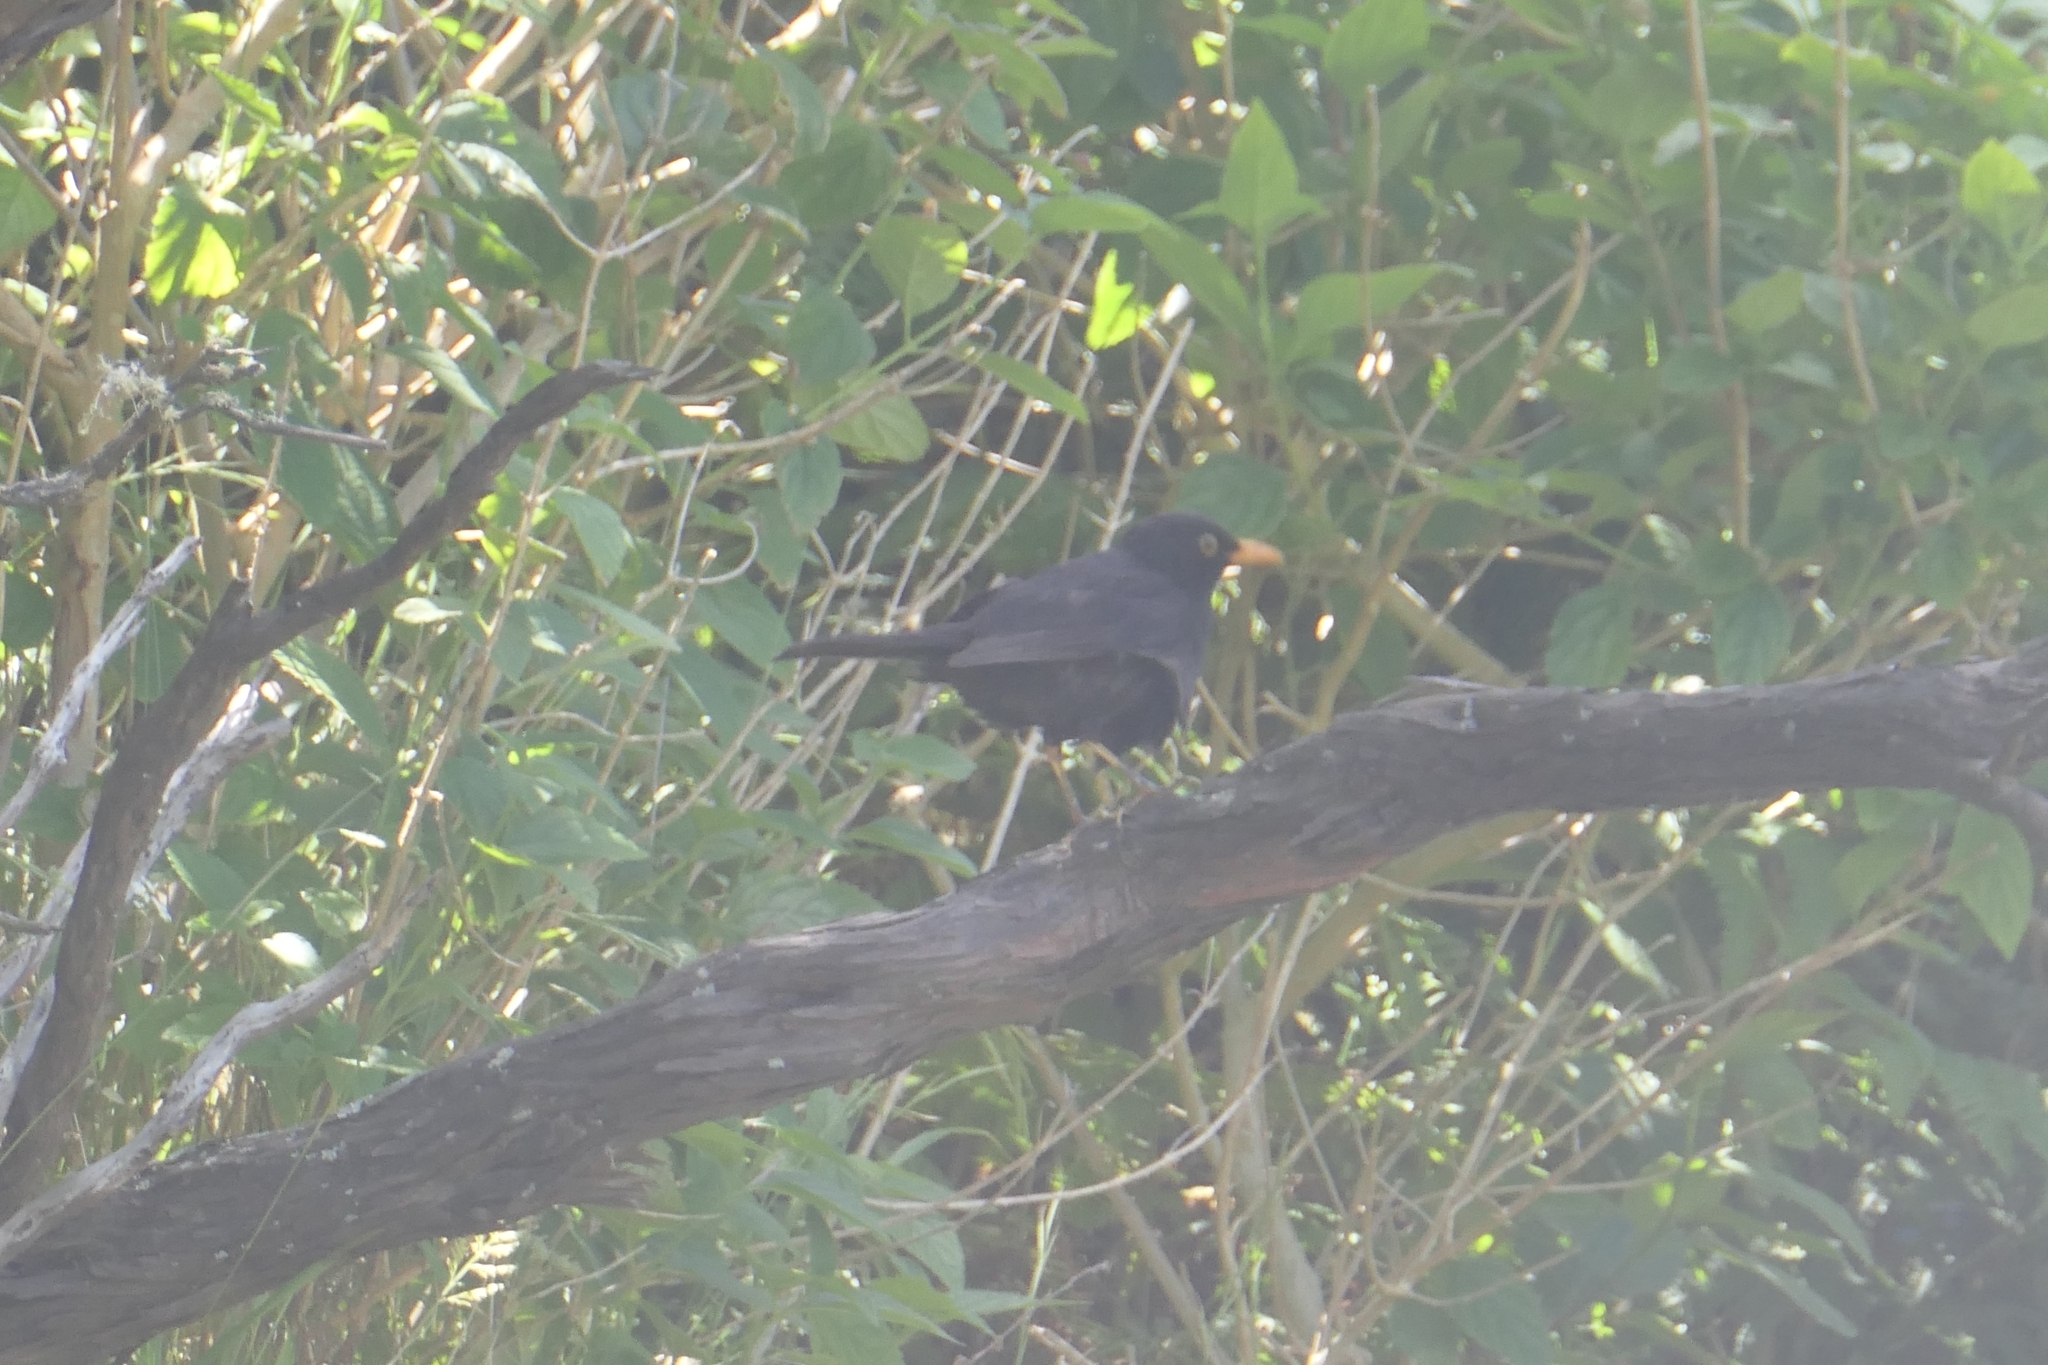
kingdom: Animalia
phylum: Chordata
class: Aves
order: Passeriformes
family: Turdidae
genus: Turdus
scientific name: Turdus merula
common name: Common blackbird
